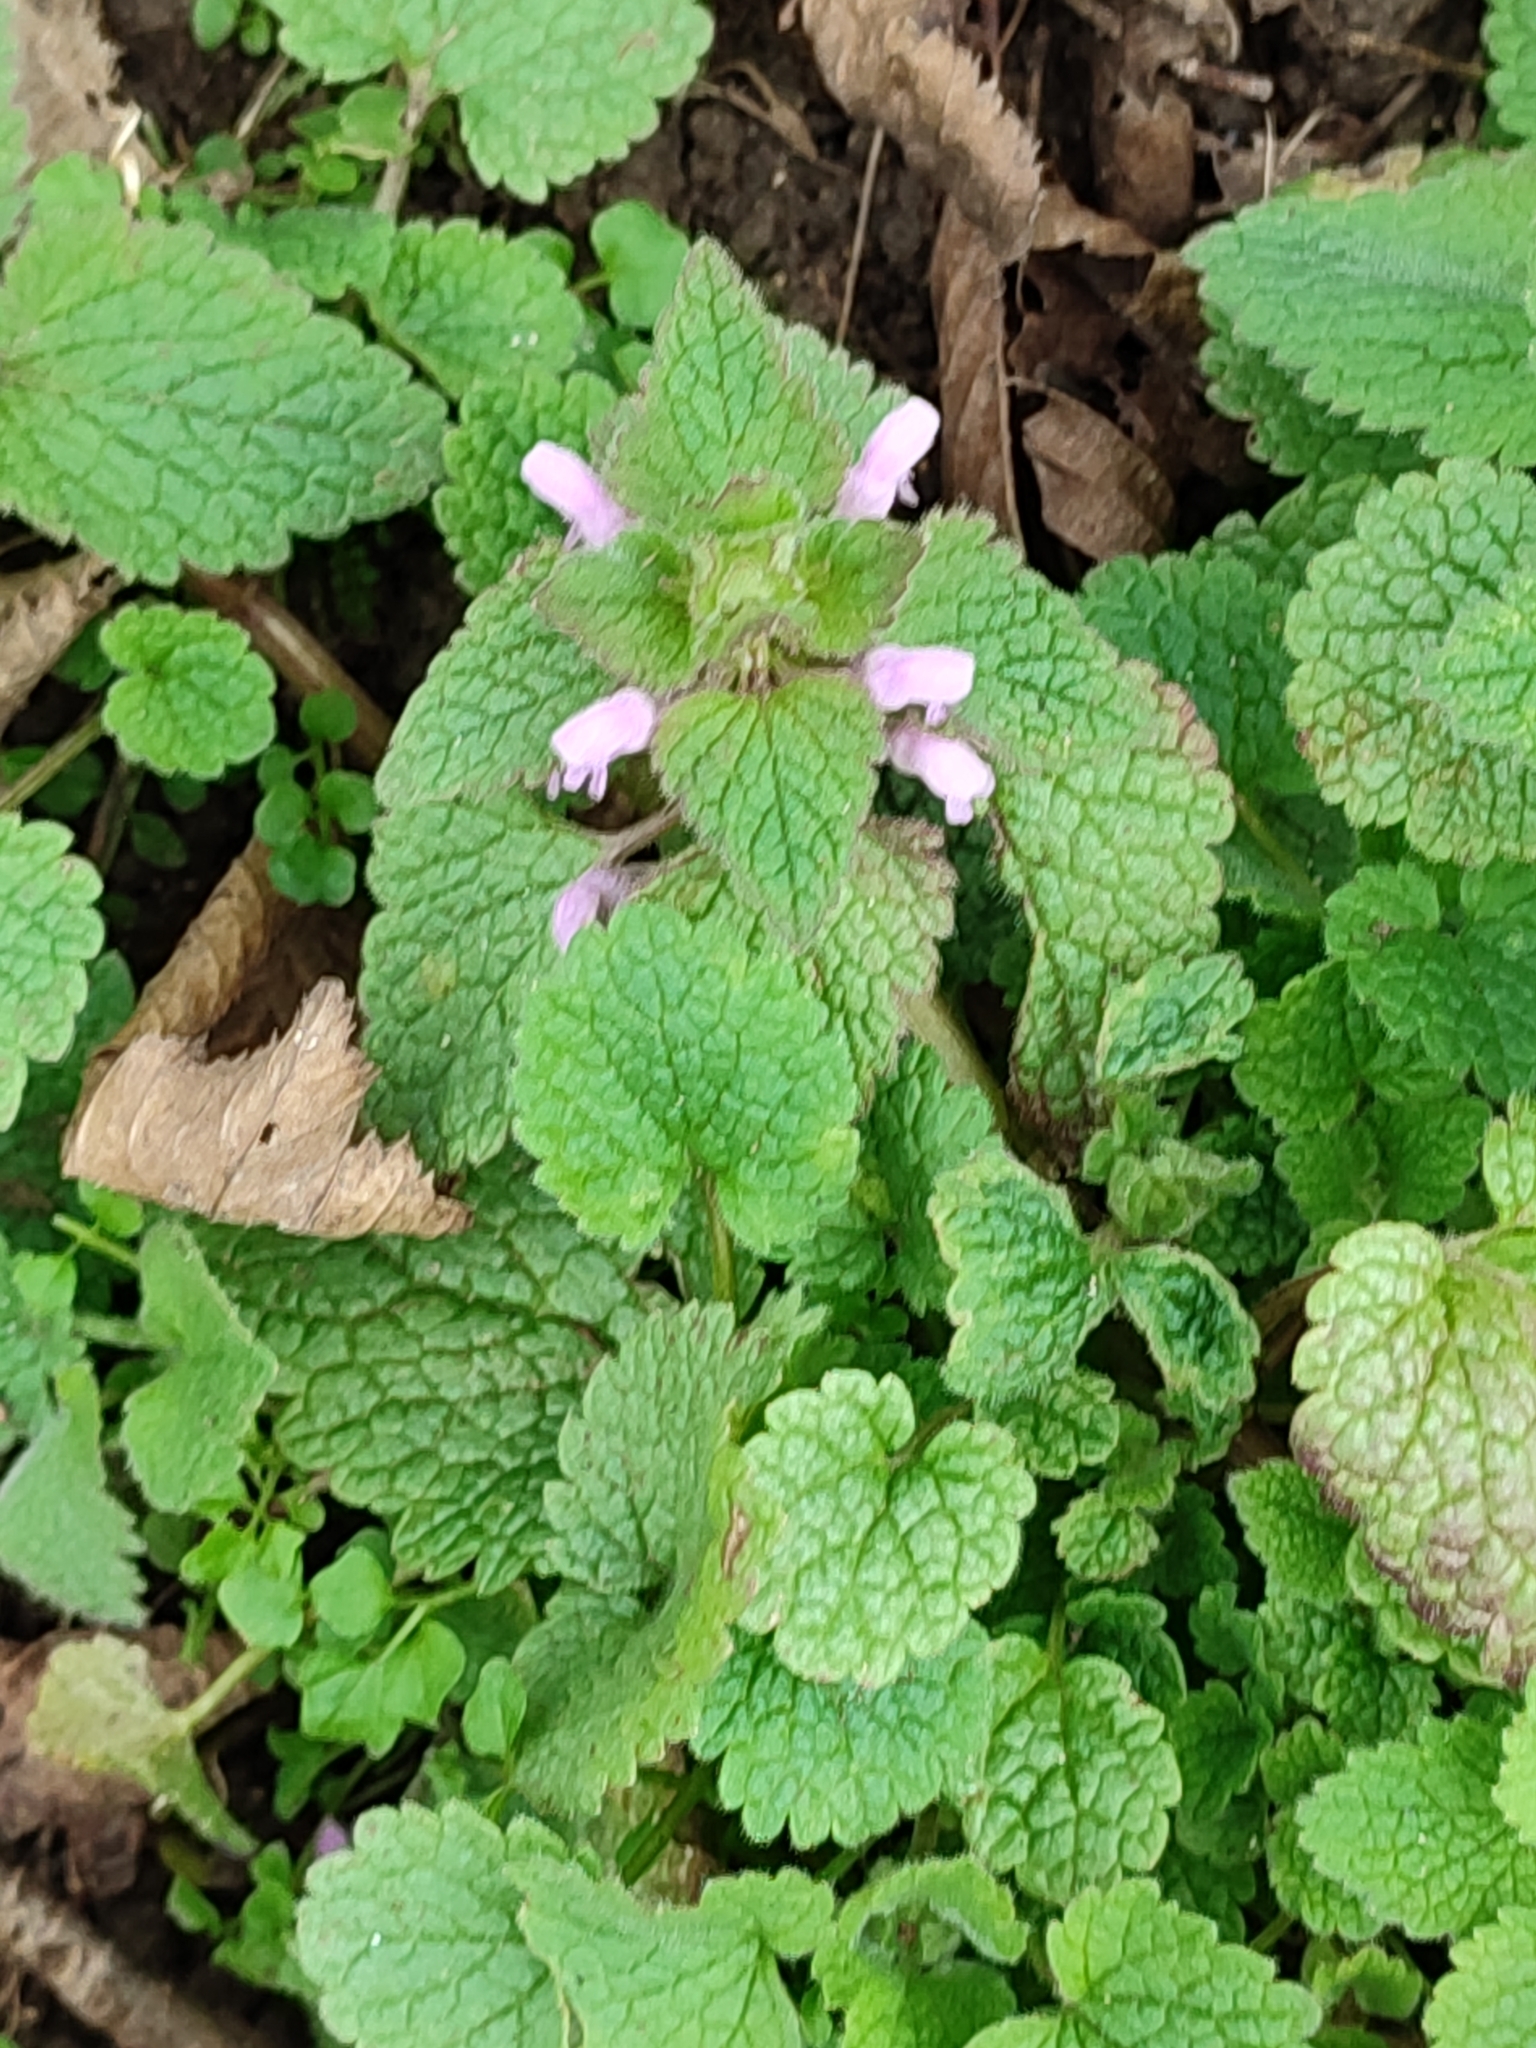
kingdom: Plantae
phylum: Tracheophyta
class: Magnoliopsida
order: Lamiales
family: Lamiaceae
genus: Lamium
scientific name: Lamium purpureum
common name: Red dead-nettle
